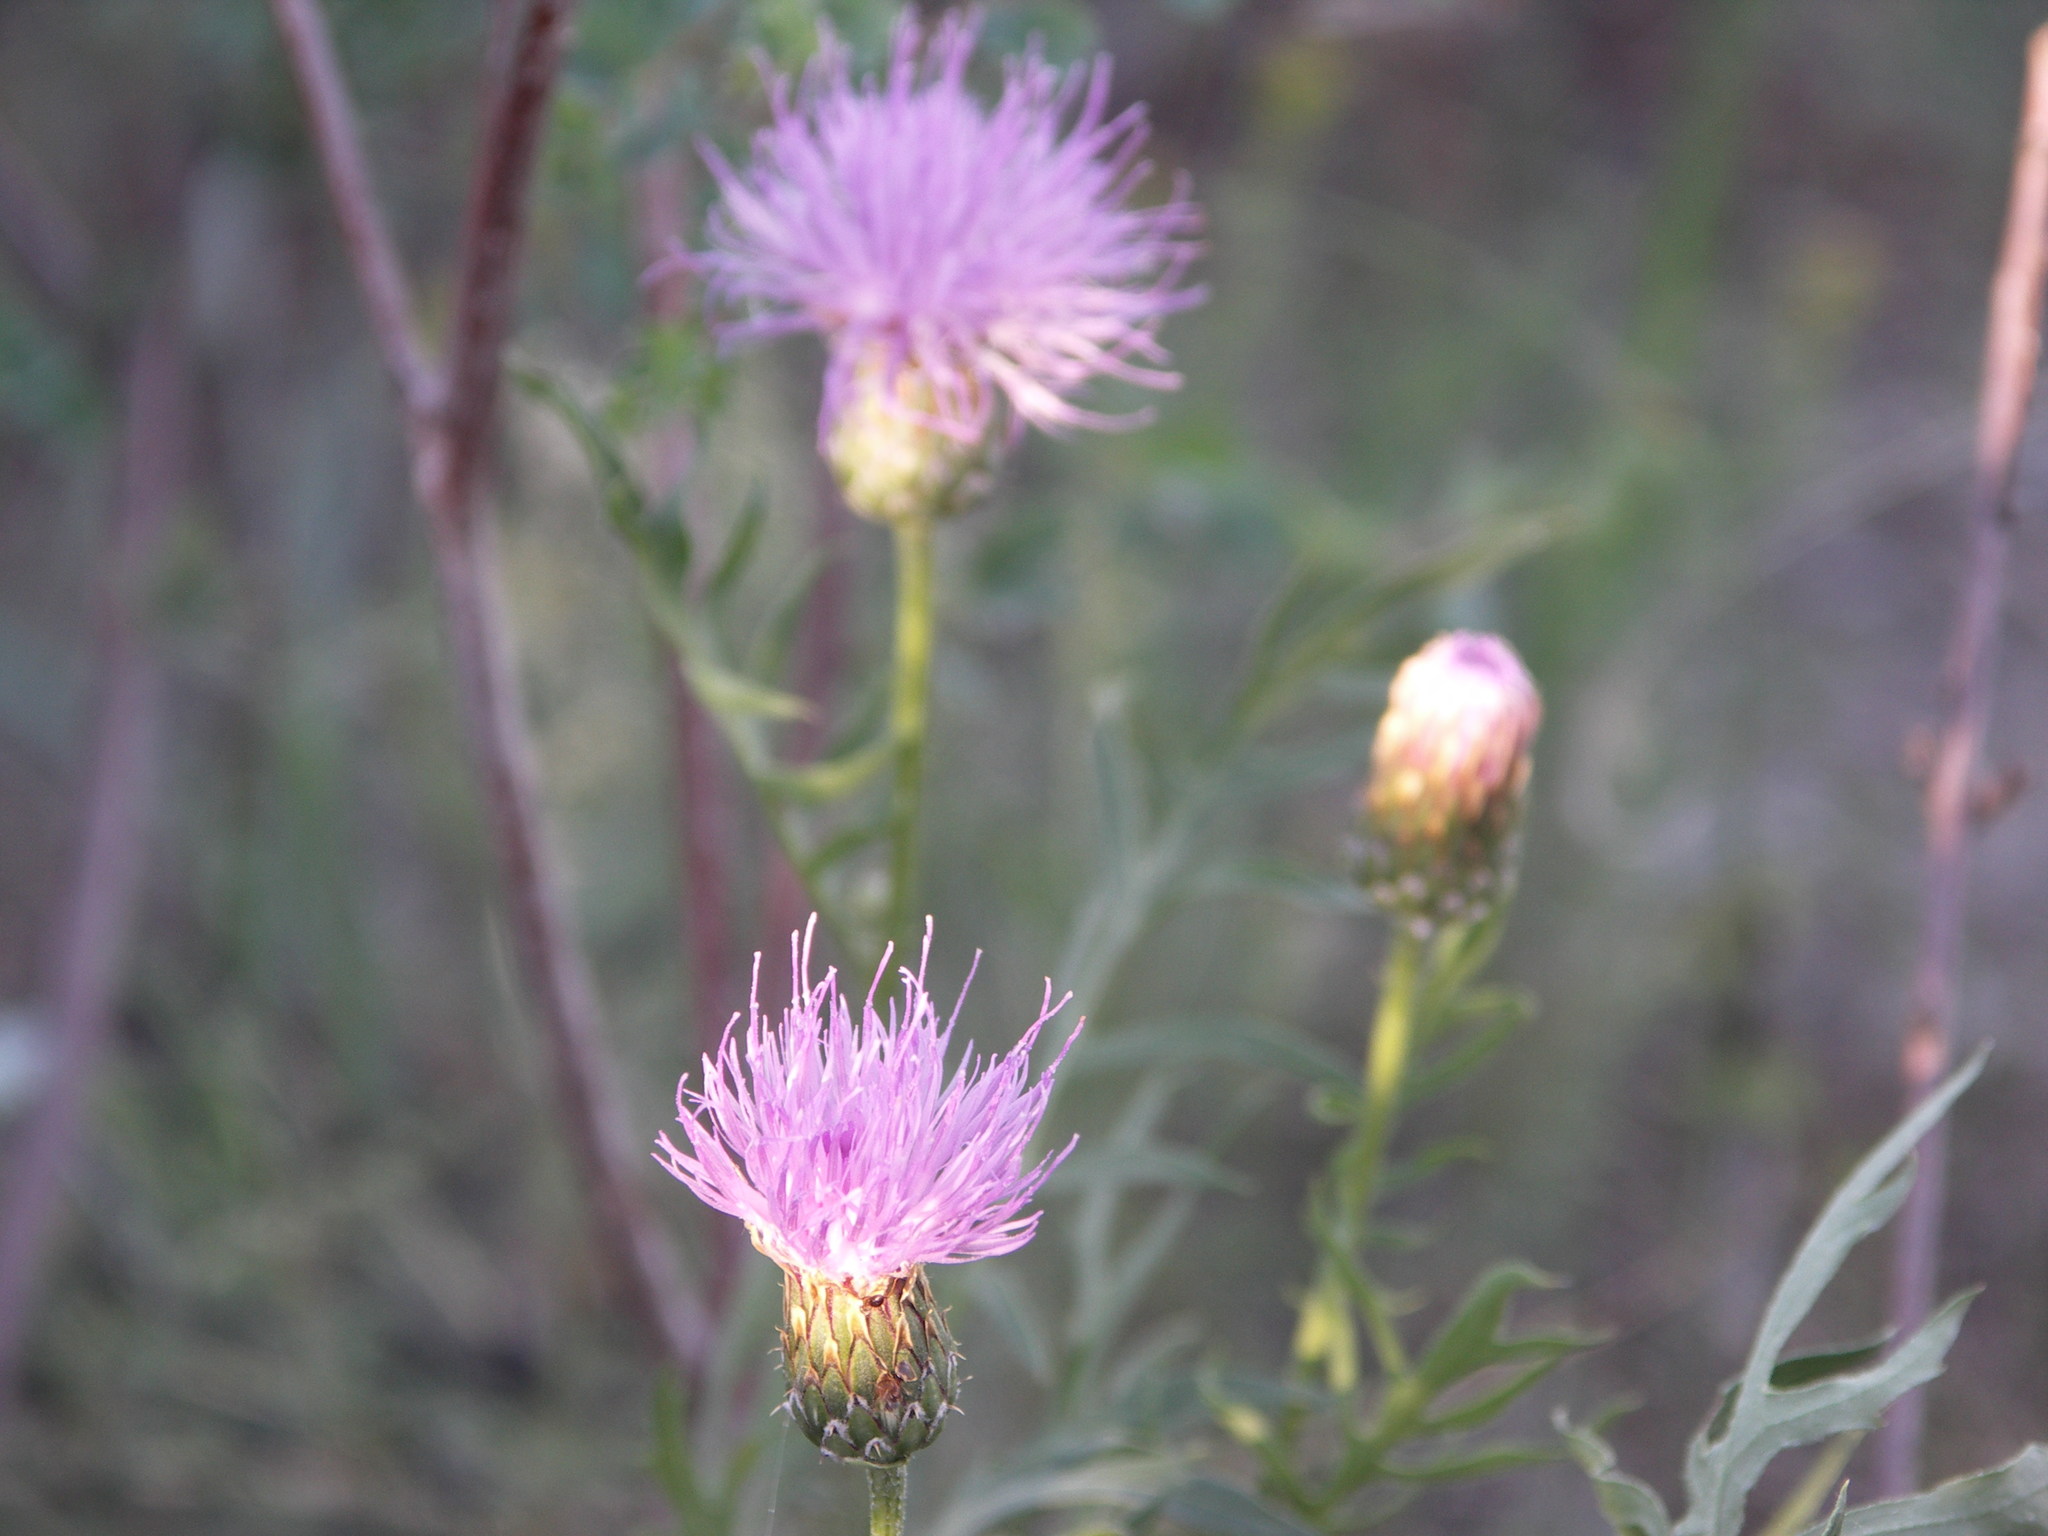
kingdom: Plantae
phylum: Tracheophyta
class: Magnoliopsida
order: Asterales
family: Asteraceae
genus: Klasea
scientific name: Klasea centauroides
